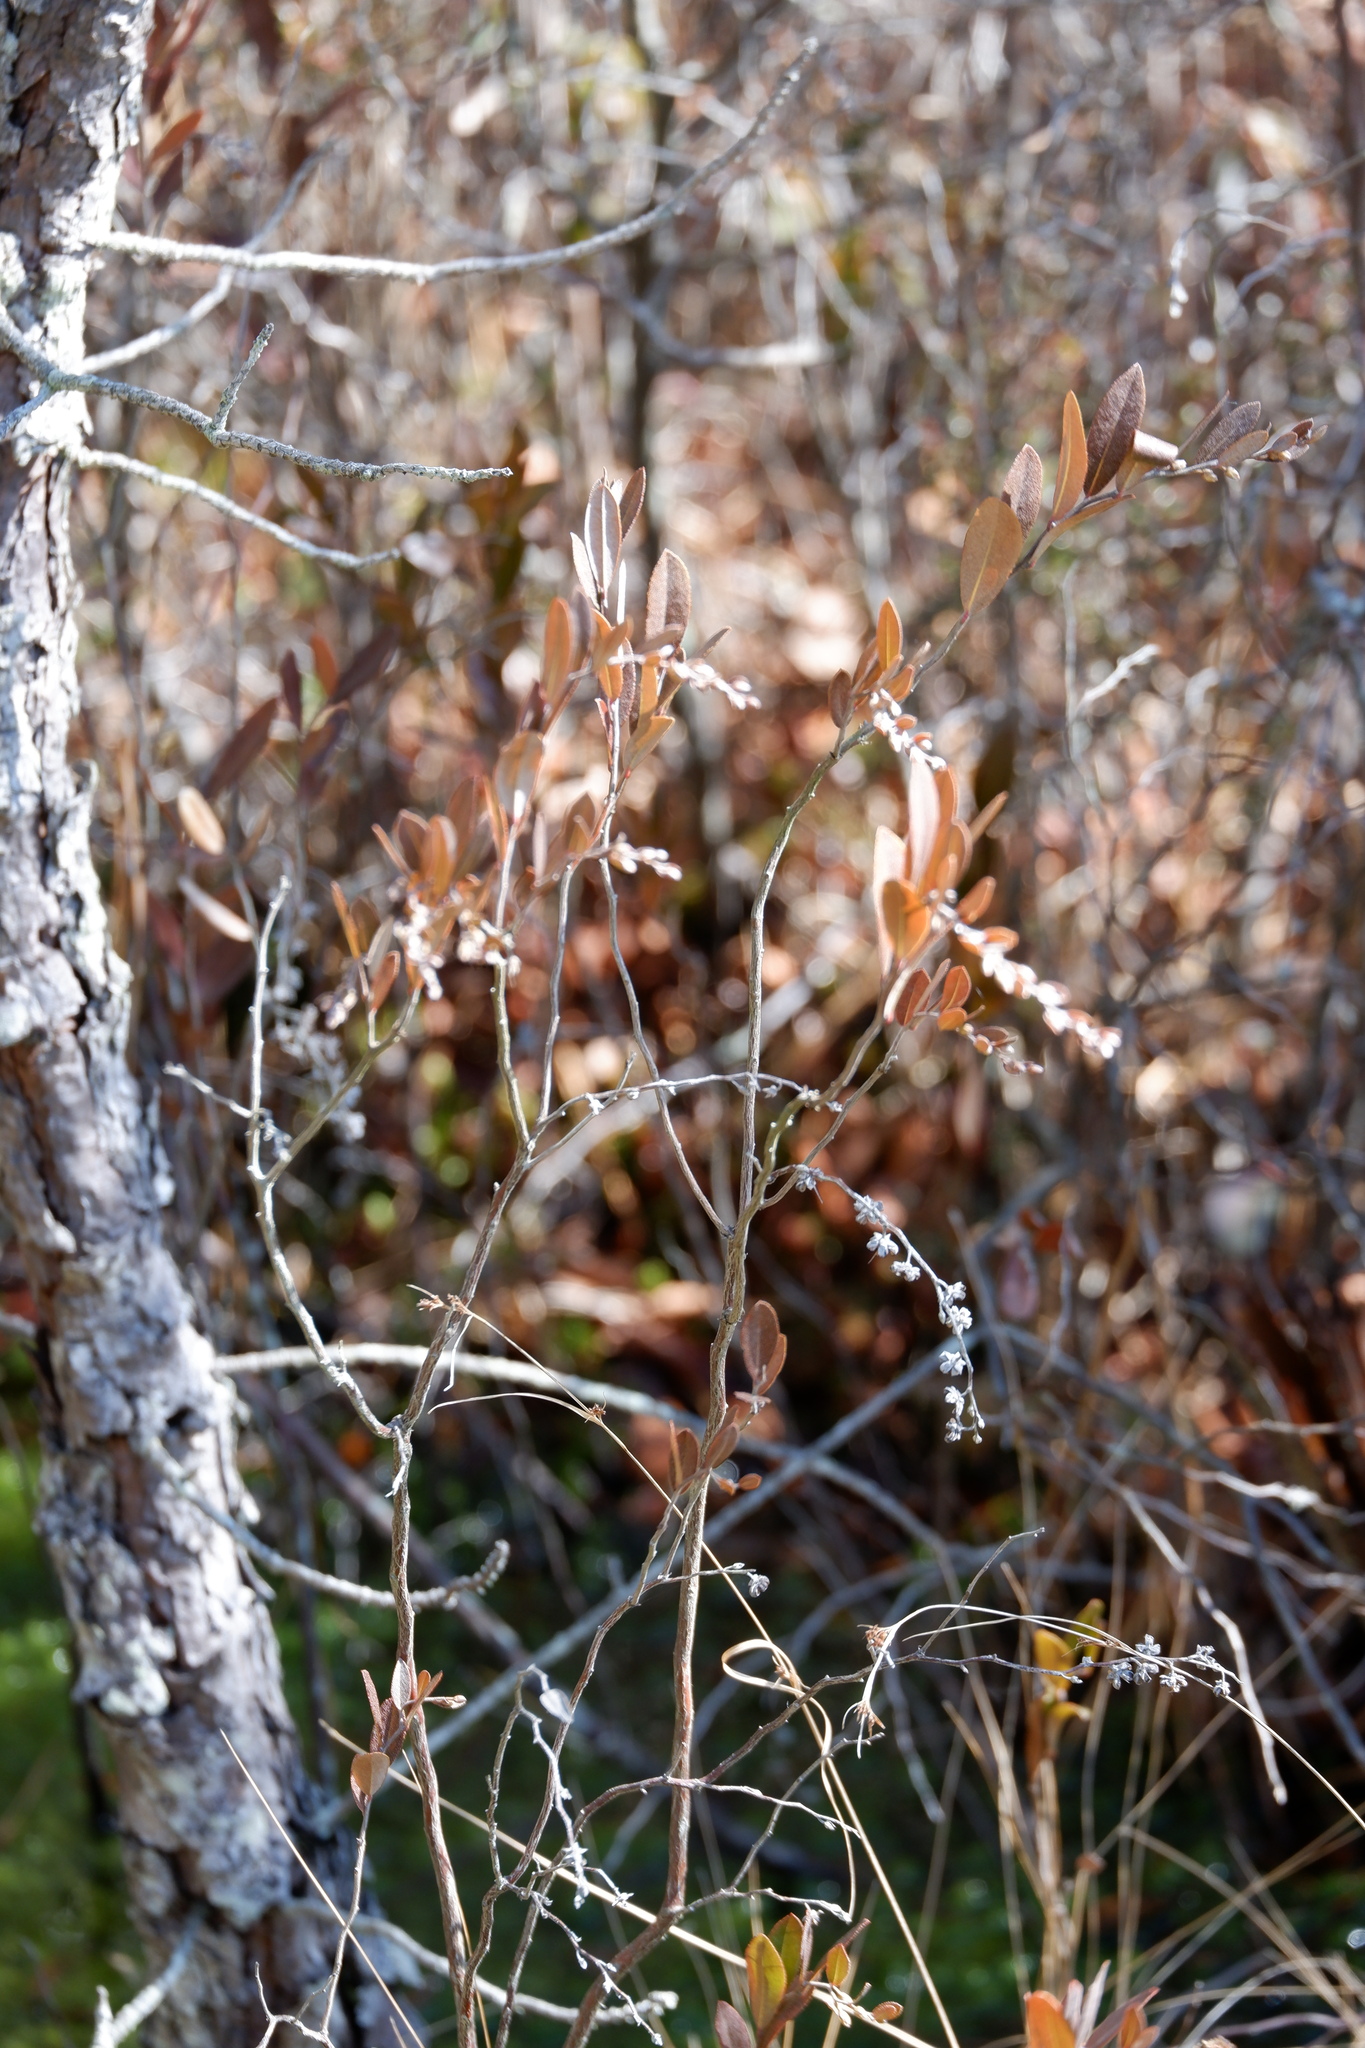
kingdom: Plantae
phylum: Tracheophyta
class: Magnoliopsida
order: Ericales
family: Ericaceae
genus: Chamaedaphne
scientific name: Chamaedaphne calyculata
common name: Leatherleaf
